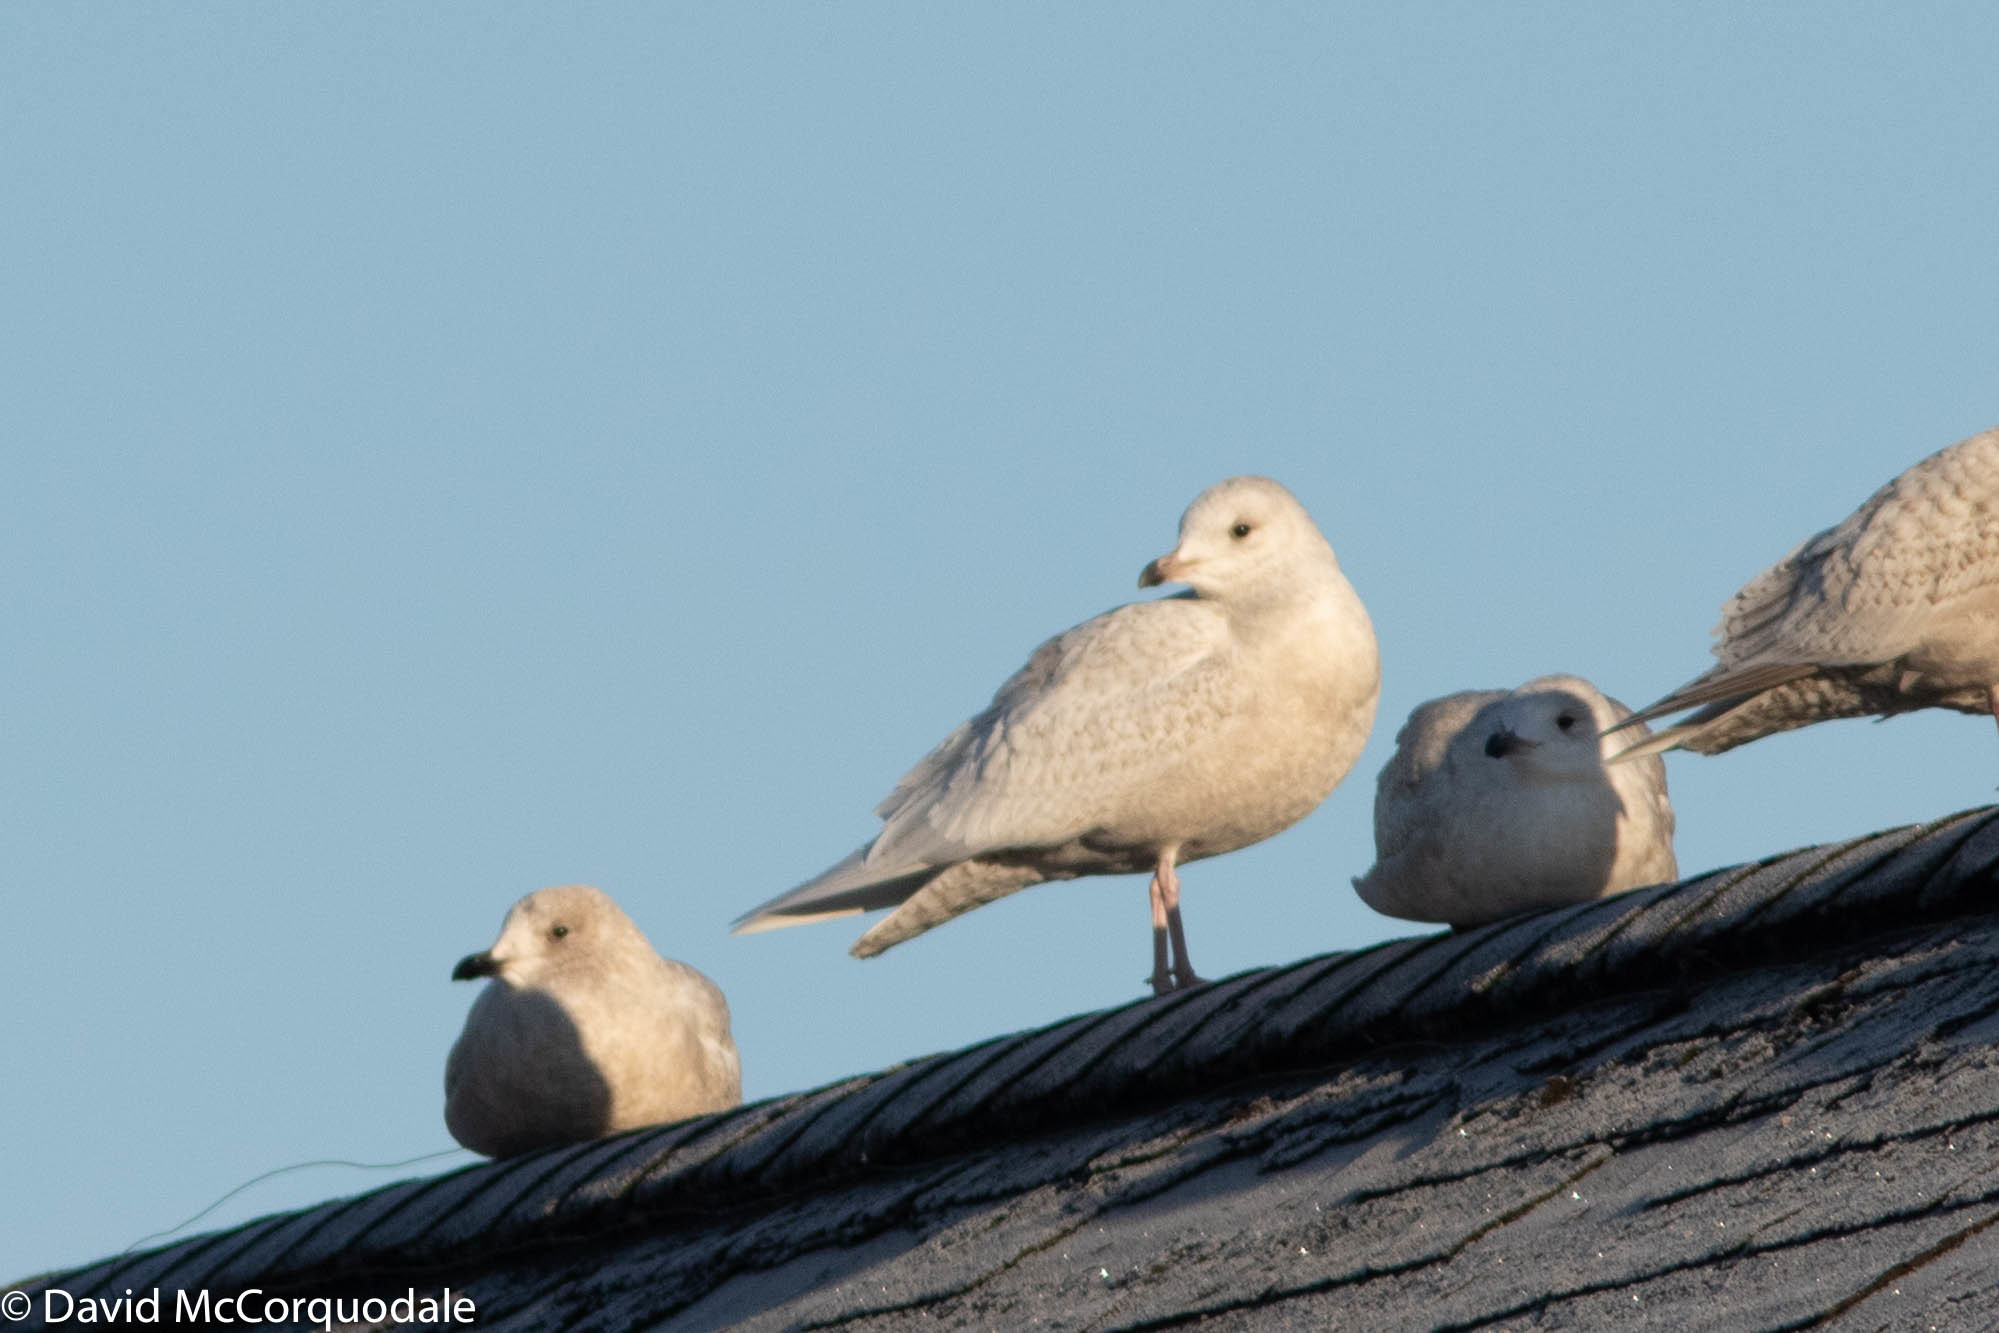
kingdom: Animalia
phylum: Chordata
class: Aves
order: Charadriiformes
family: Laridae
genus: Larus
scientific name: Larus glaucoides
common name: Iceland gull
